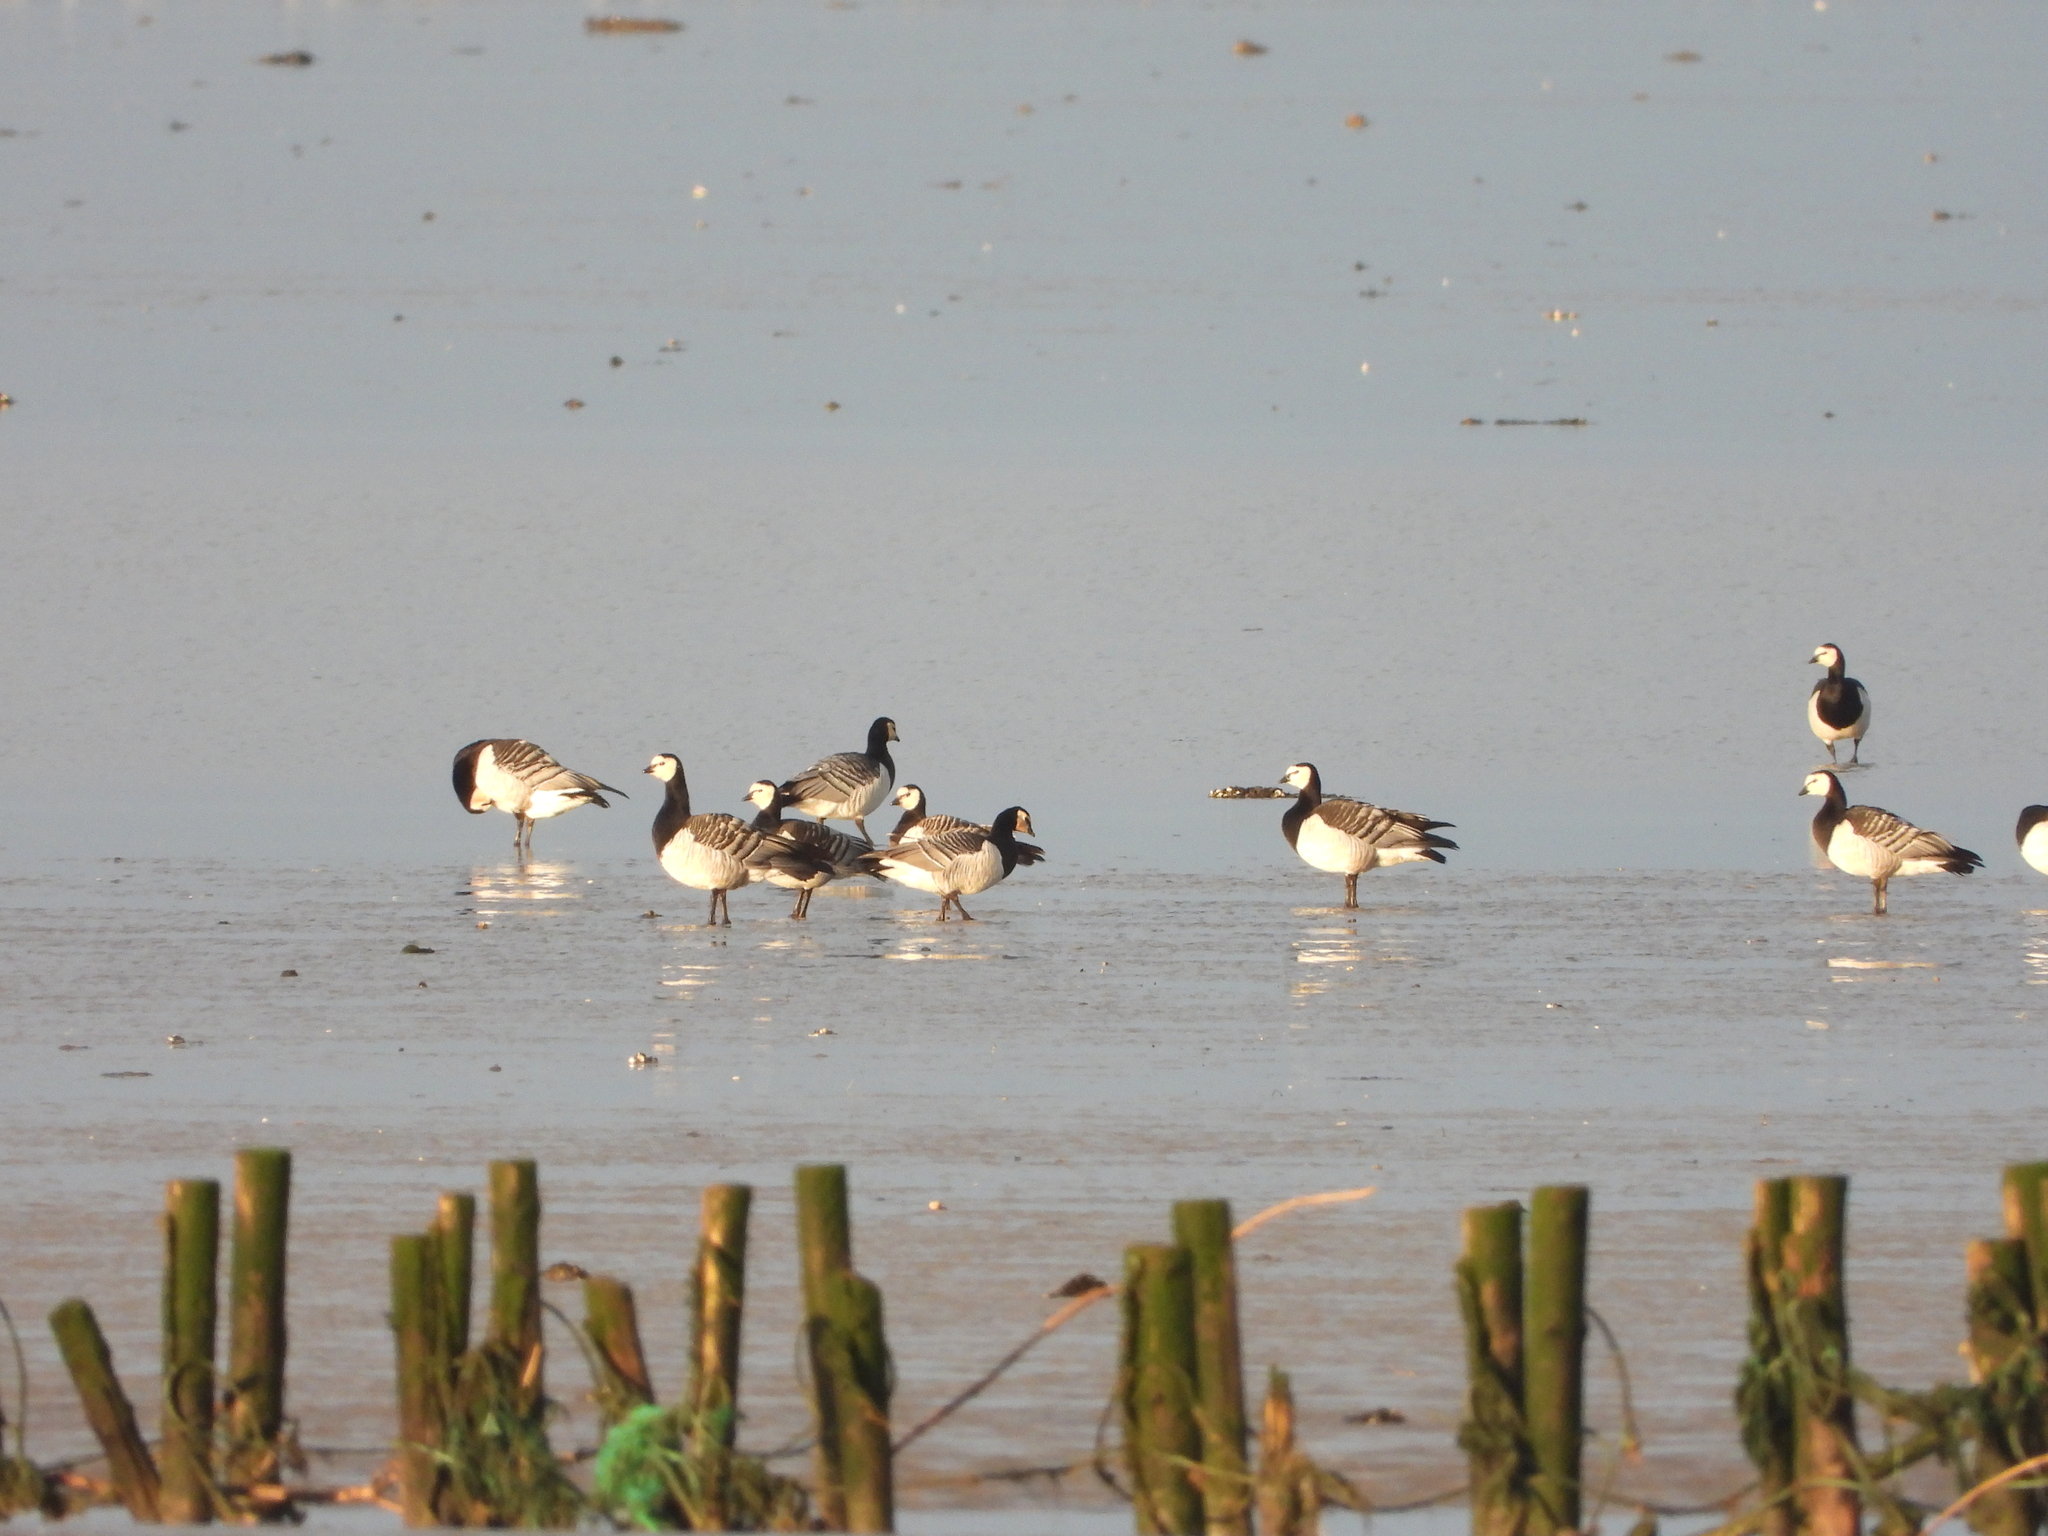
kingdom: Animalia
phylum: Chordata
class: Aves
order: Anseriformes
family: Anatidae
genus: Branta
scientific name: Branta leucopsis
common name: Barnacle goose
